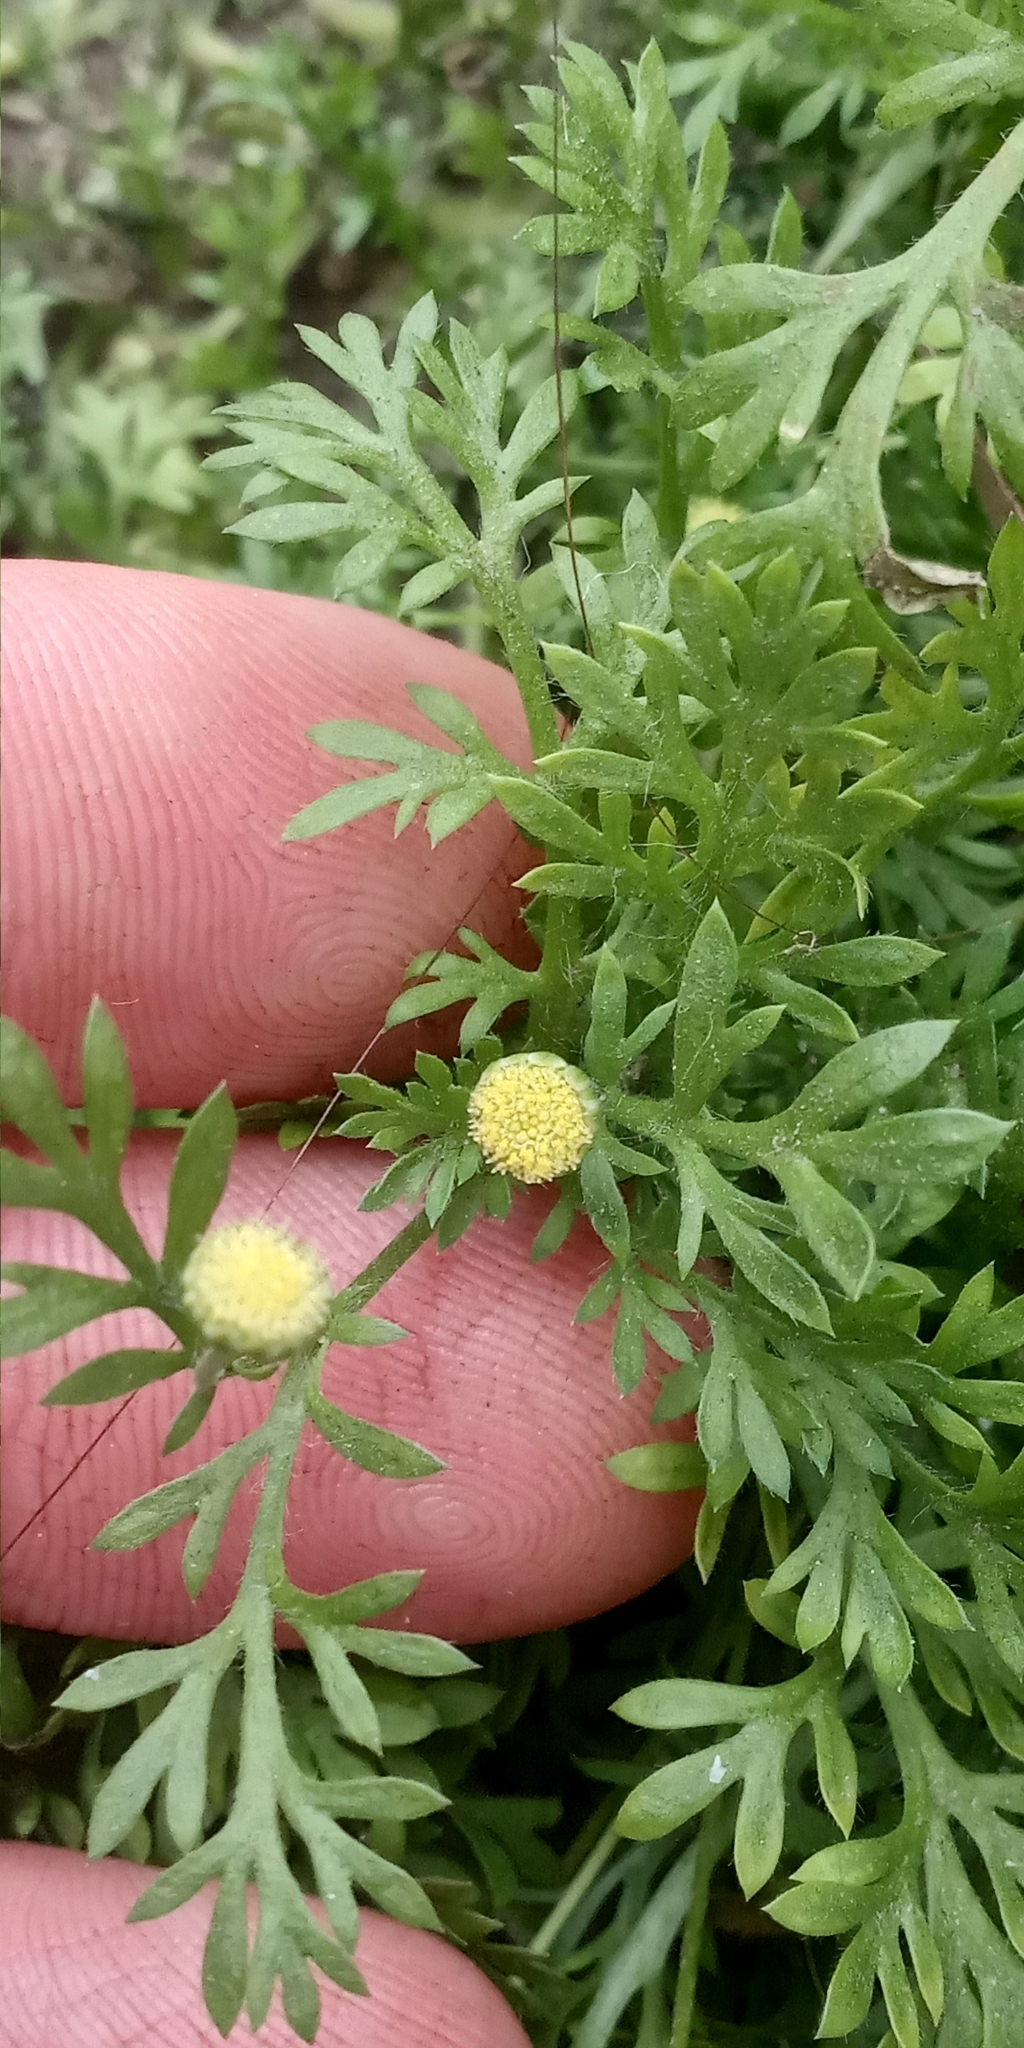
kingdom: Plantae
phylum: Tracheophyta
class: Magnoliopsida
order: Asterales
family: Asteraceae
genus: Cotula
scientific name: Cotula australis
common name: Australian waterbuttons
